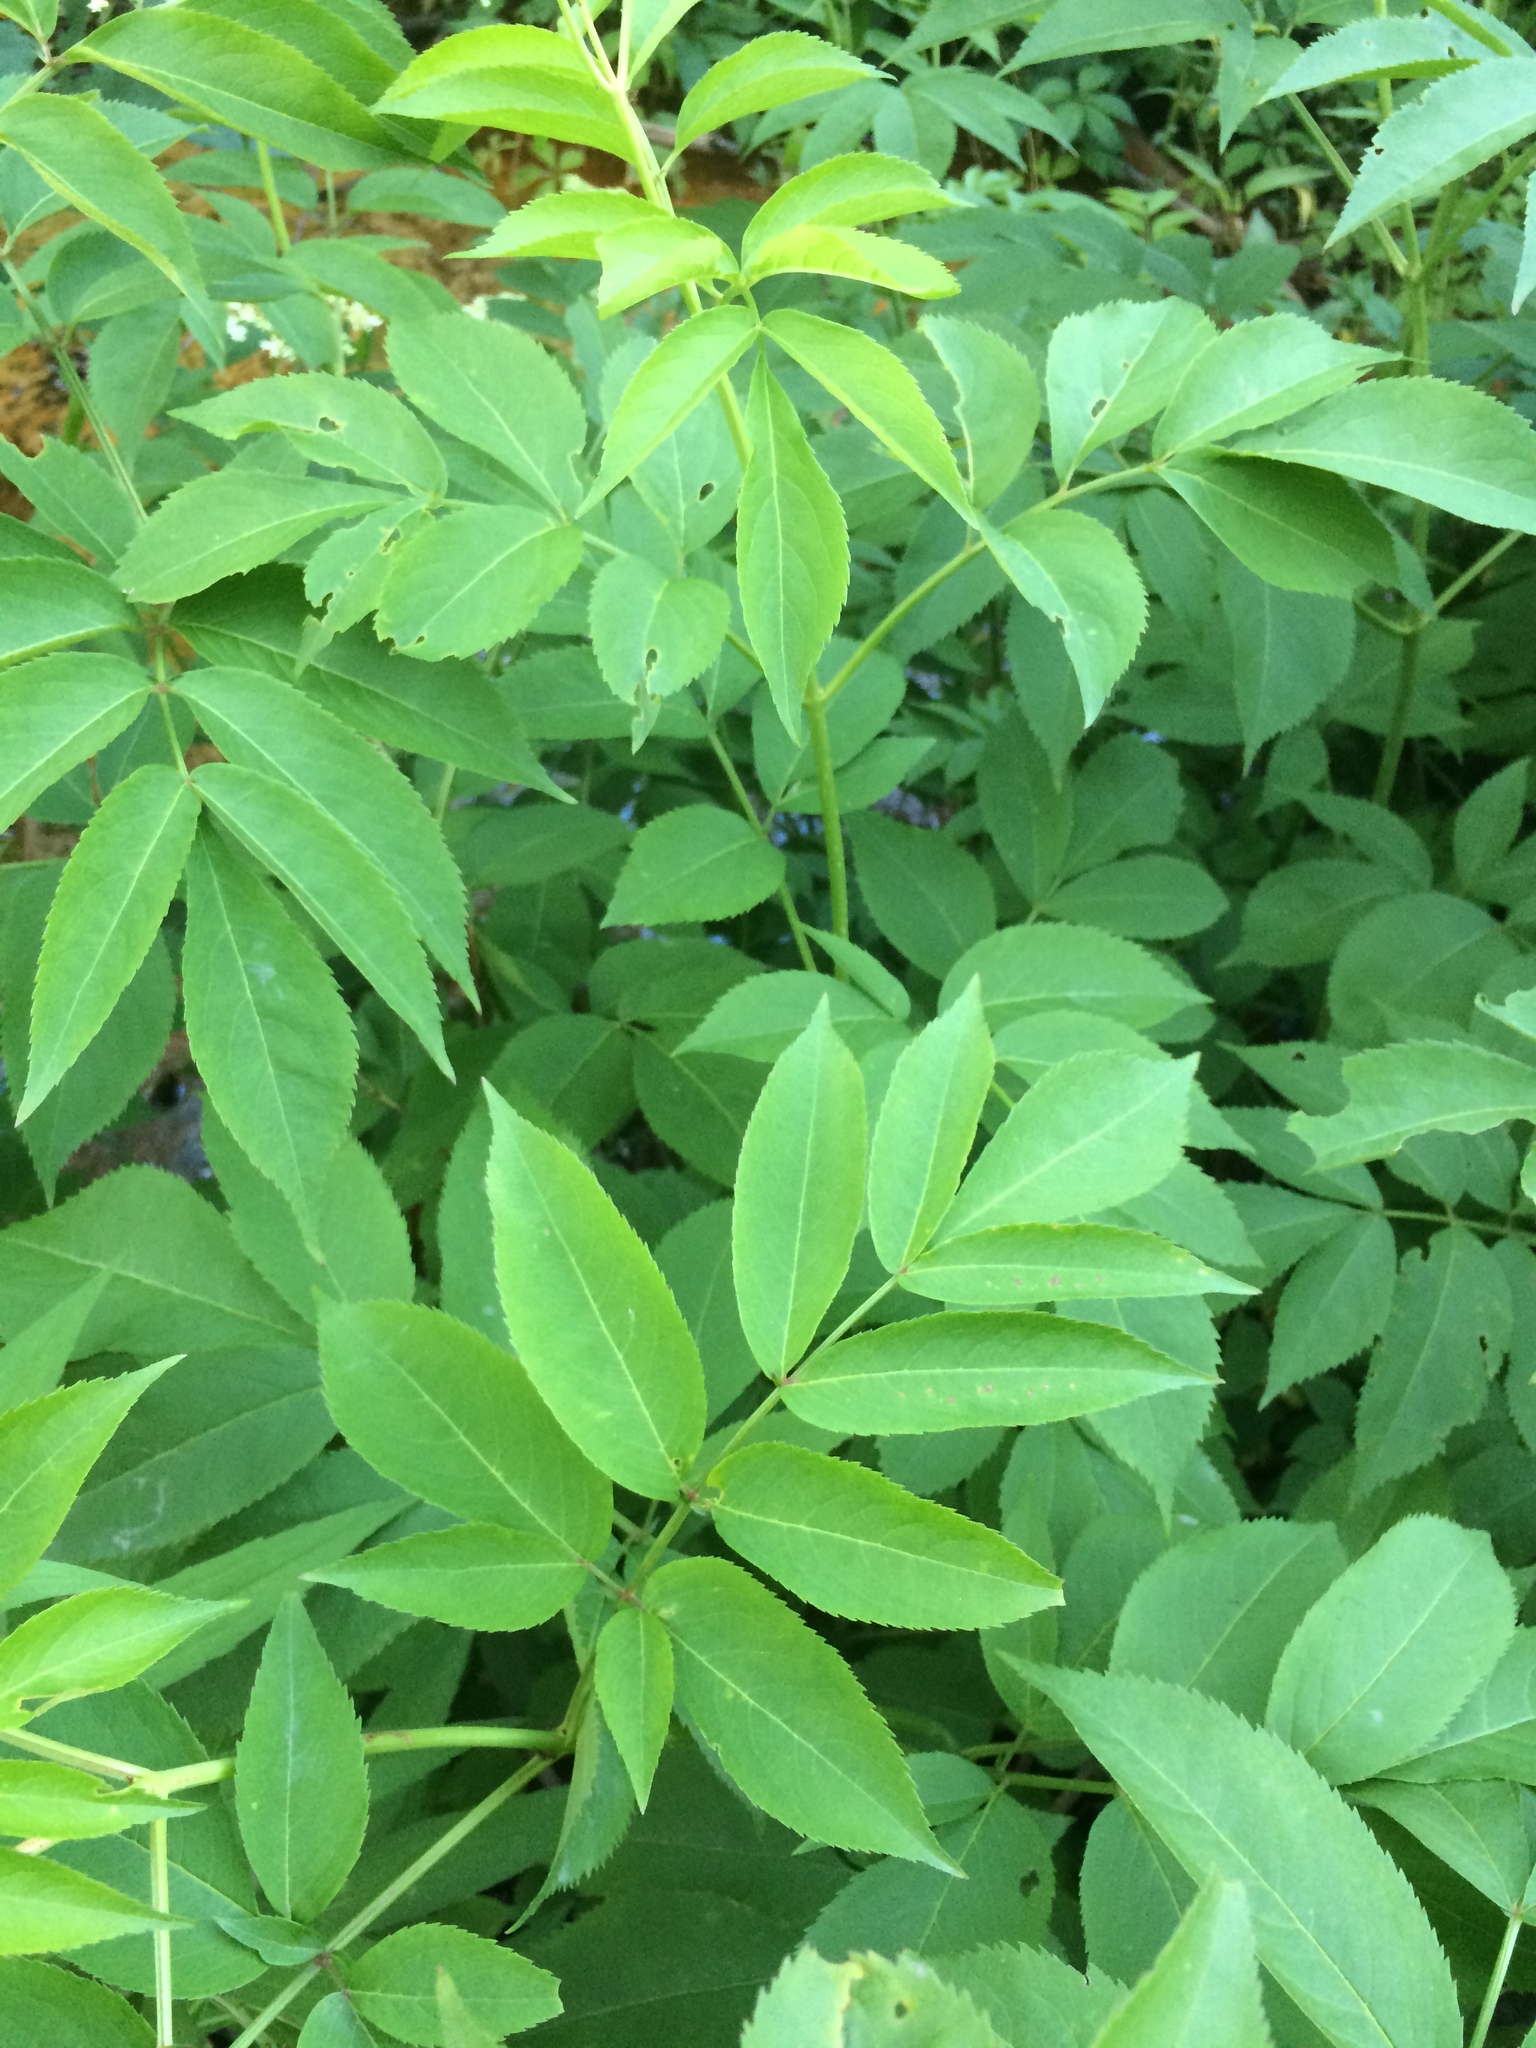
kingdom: Plantae
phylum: Tracheophyta
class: Magnoliopsida
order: Dipsacales
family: Viburnaceae
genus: Sambucus
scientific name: Sambucus canadensis
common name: American elder
